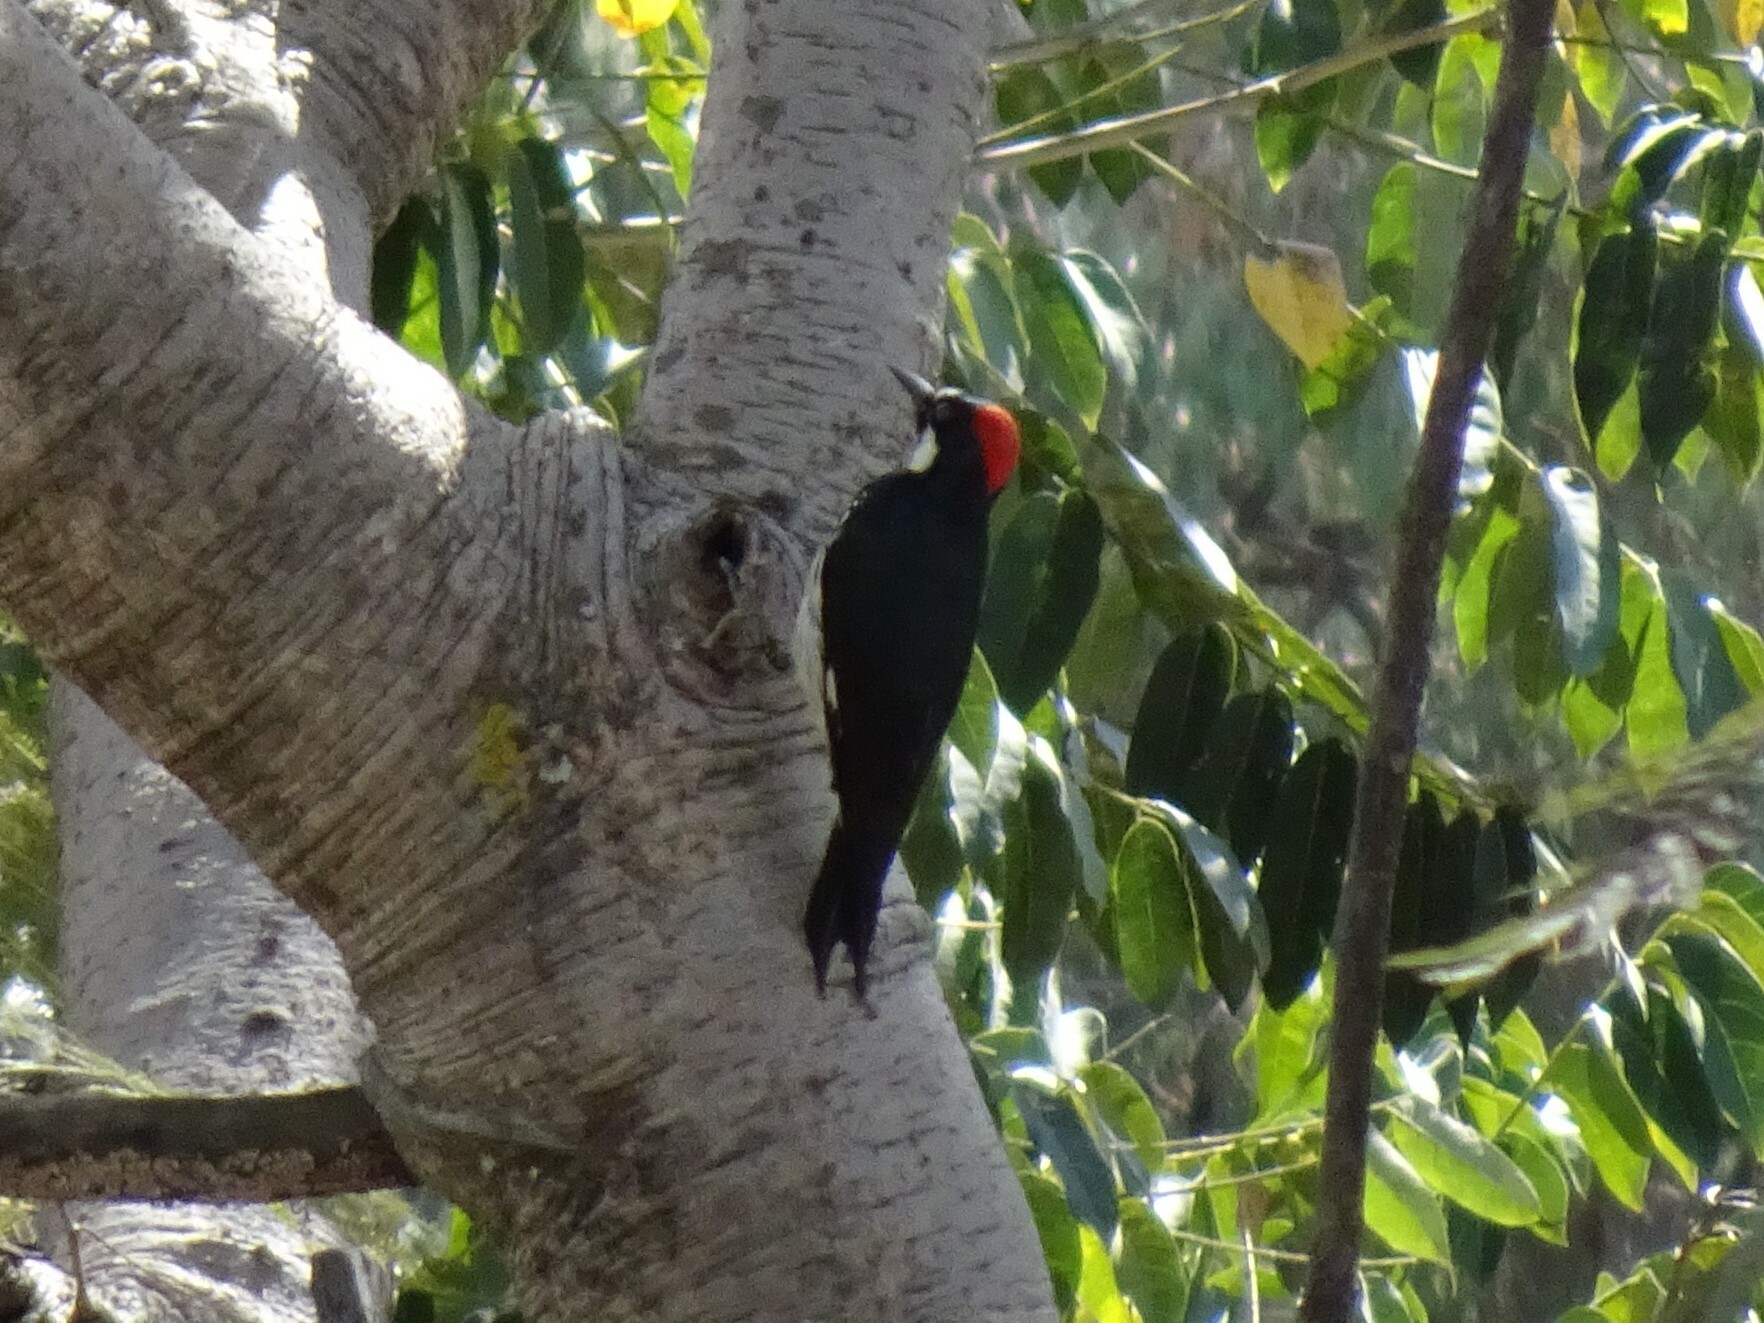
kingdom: Animalia
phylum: Chordata
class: Aves
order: Piciformes
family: Picidae
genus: Melanerpes
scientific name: Melanerpes formicivorus
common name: Acorn woodpecker
